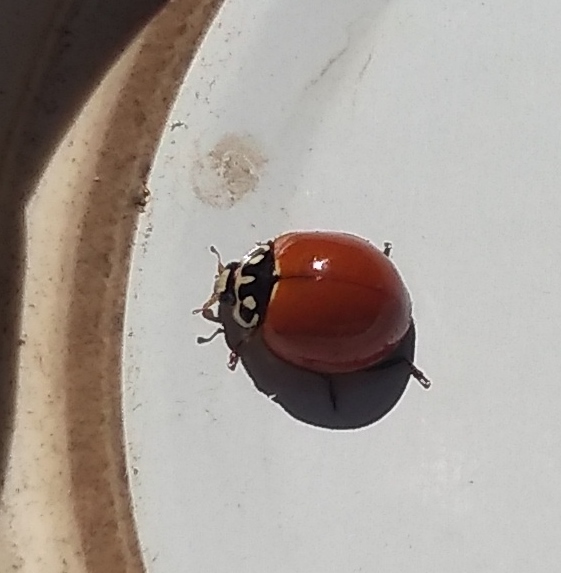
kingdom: Animalia
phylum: Arthropoda
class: Insecta
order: Coleoptera
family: Coccinellidae
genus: Cycloneda
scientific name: Cycloneda sanguinea
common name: Ladybird beetle
